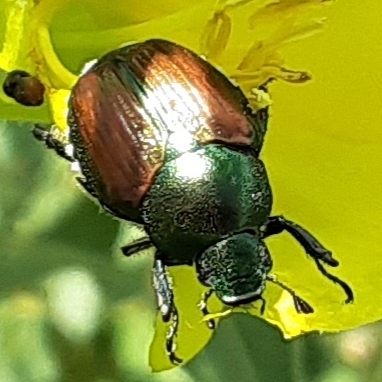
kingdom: Animalia
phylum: Arthropoda
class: Insecta
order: Coleoptera
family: Scarabaeidae
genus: Popillia
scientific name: Popillia japonica
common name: Japanese beetle
